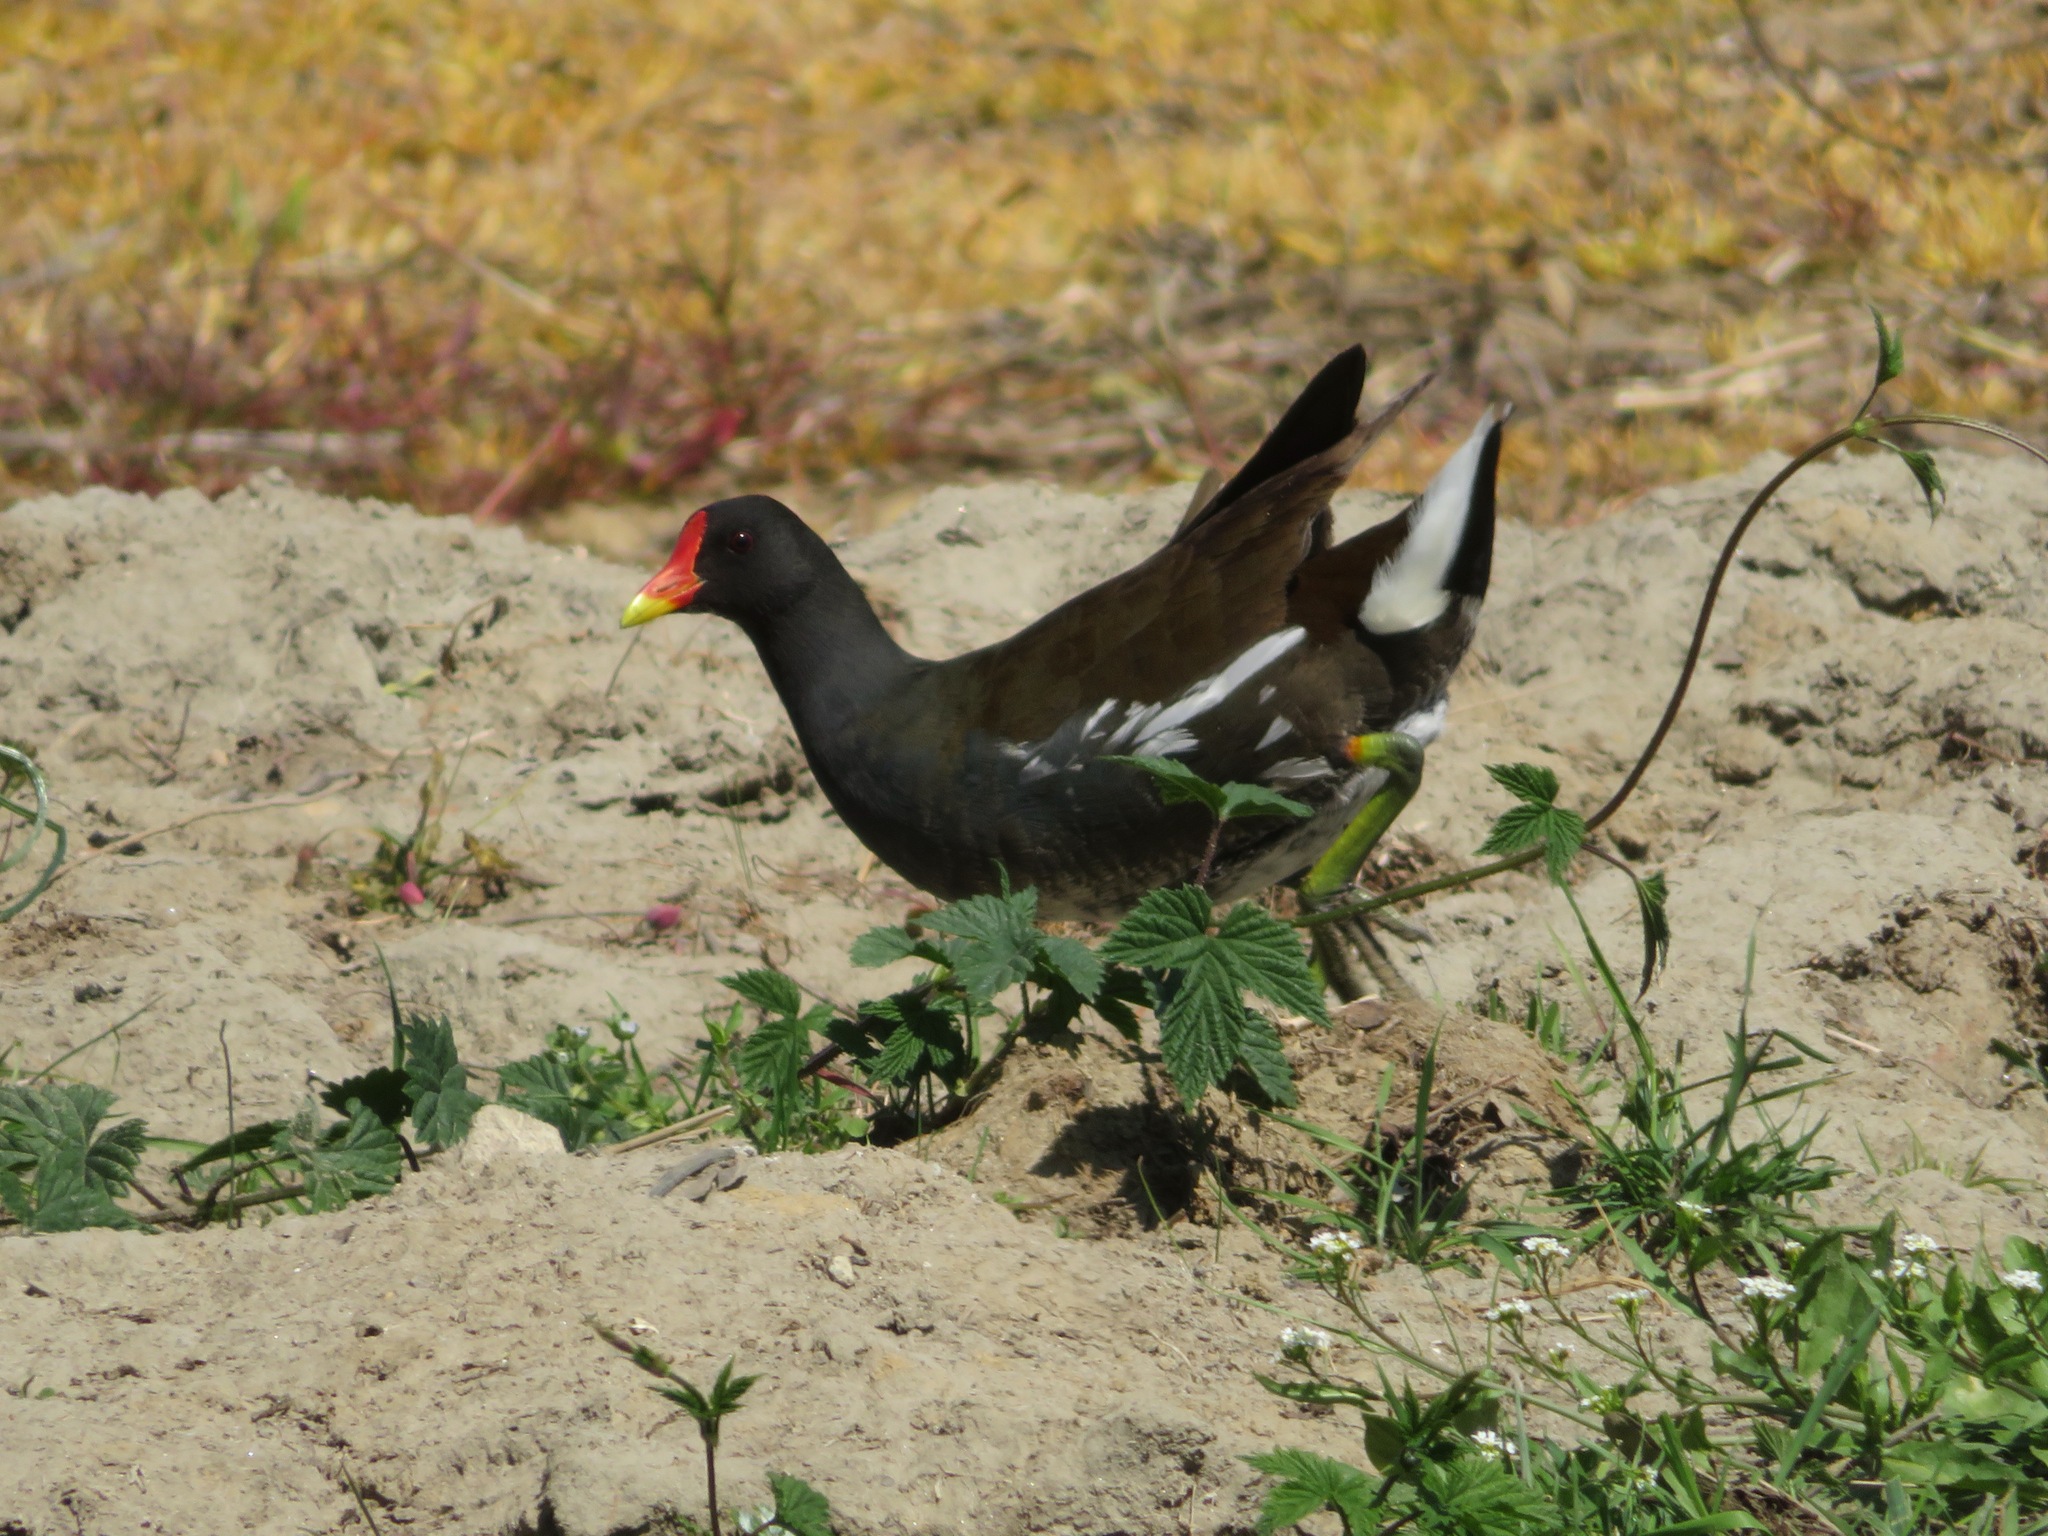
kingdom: Animalia
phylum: Chordata
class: Aves
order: Gruiformes
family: Rallidae
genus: Gallinula
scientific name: Gallinula chloropus
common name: Common moorhen
